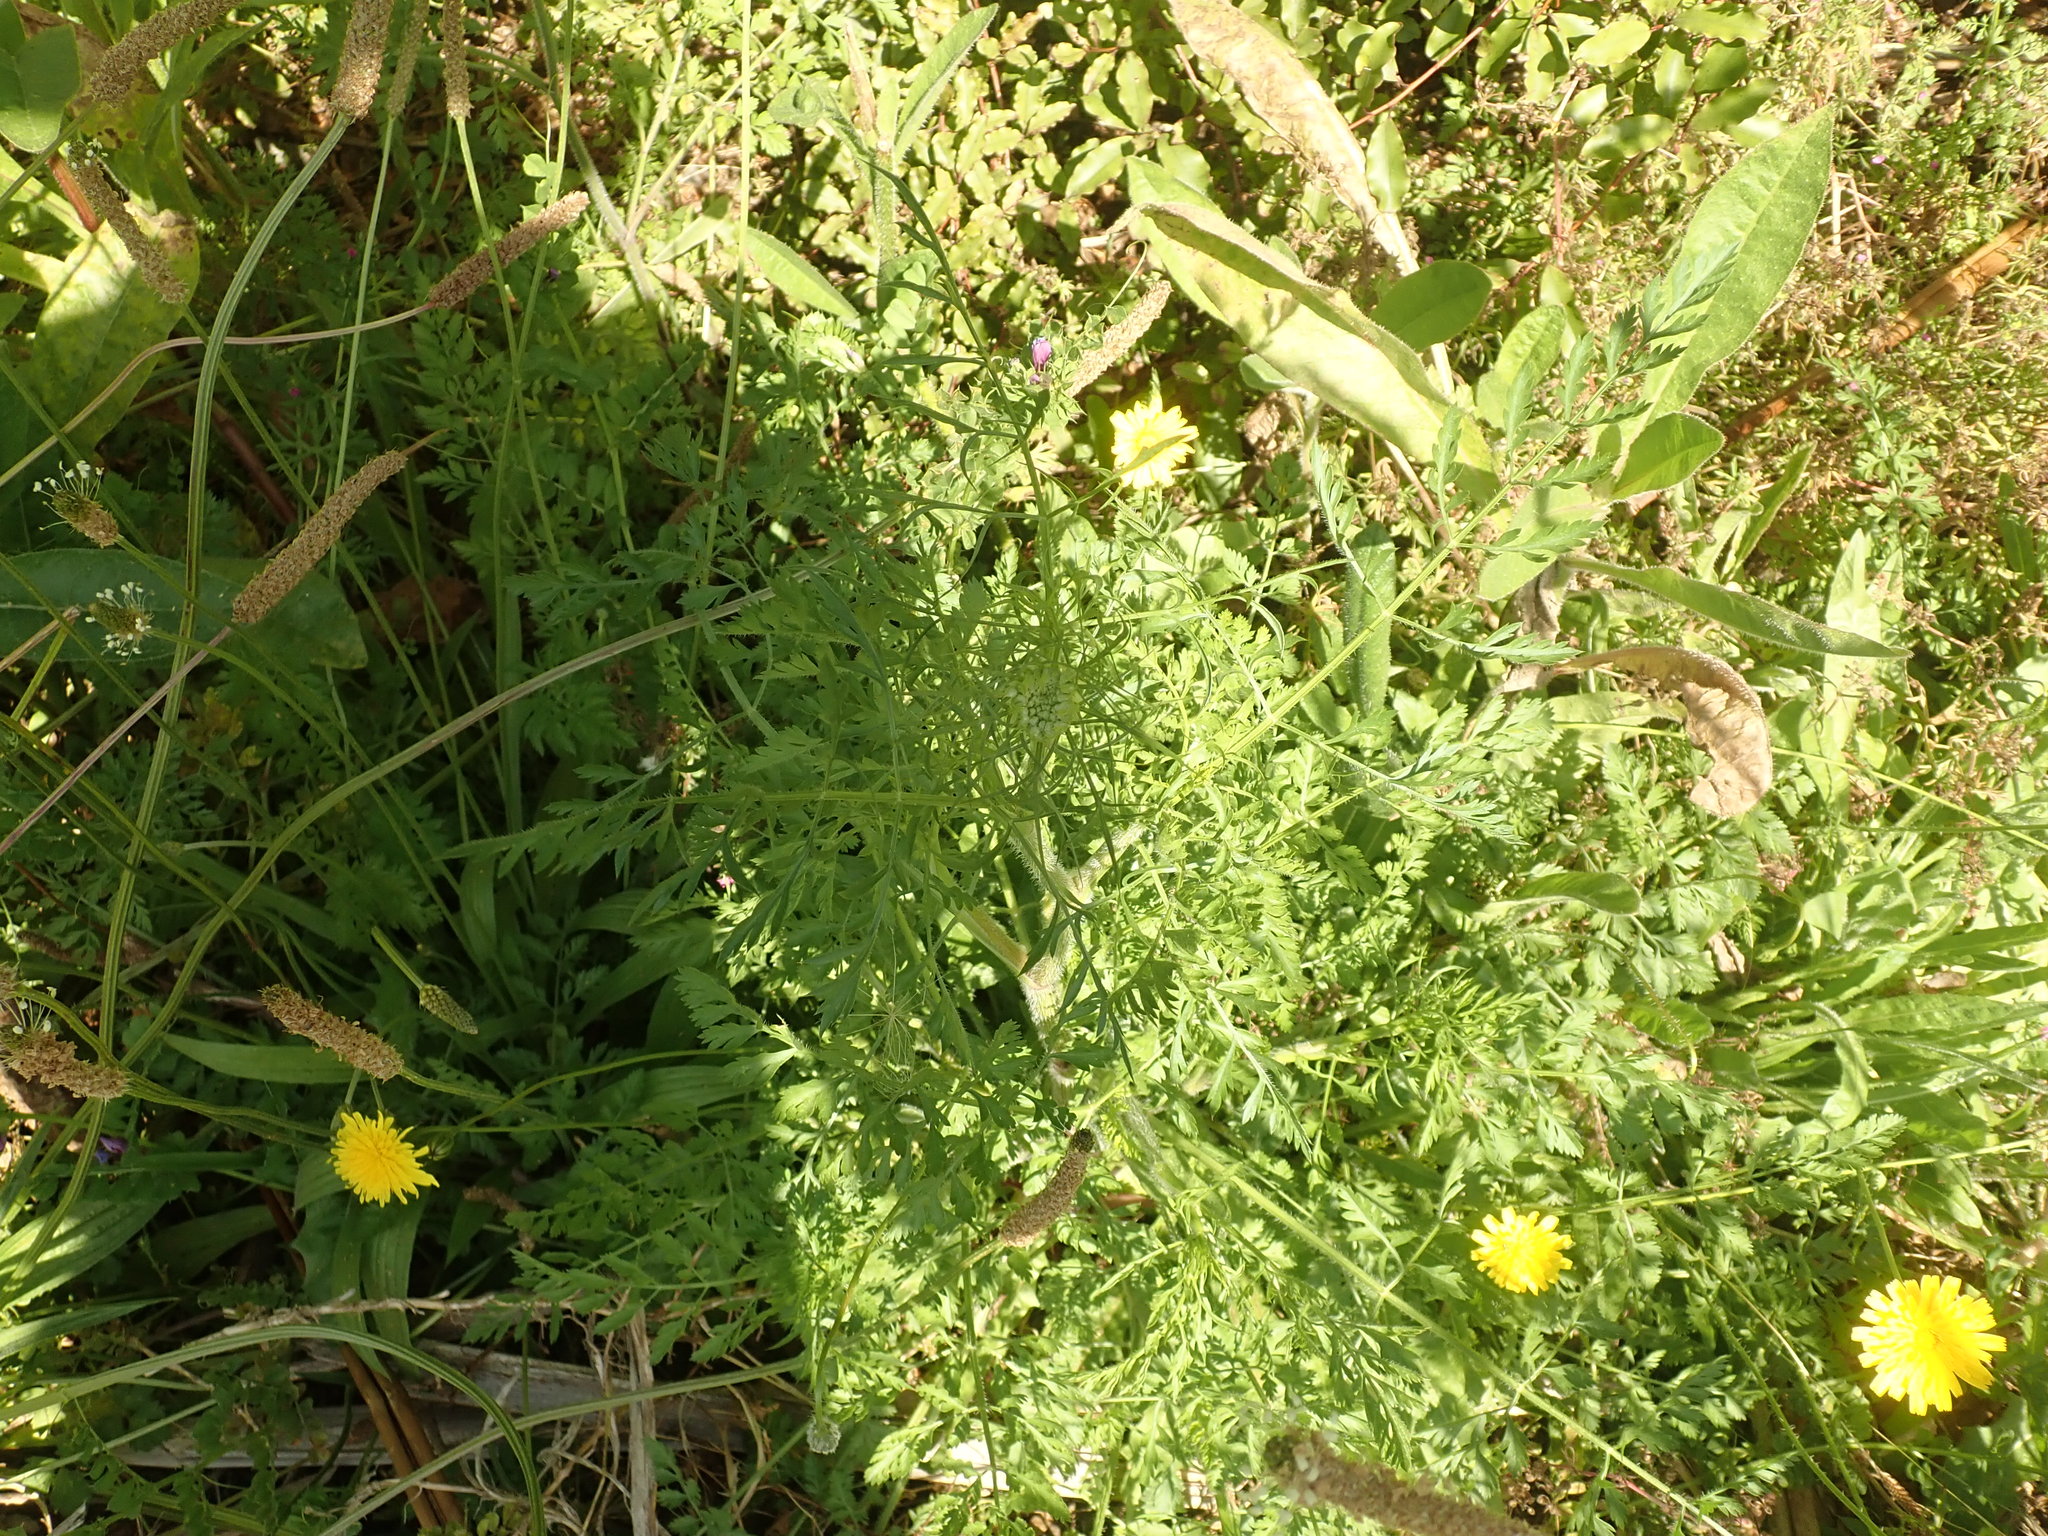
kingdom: Plantae
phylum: Tracheophyta
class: Magnoliopsida
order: Lamiales
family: Plantaginaceae
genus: Plantago
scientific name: Plantago lanceolata
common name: Ribwort plantain
